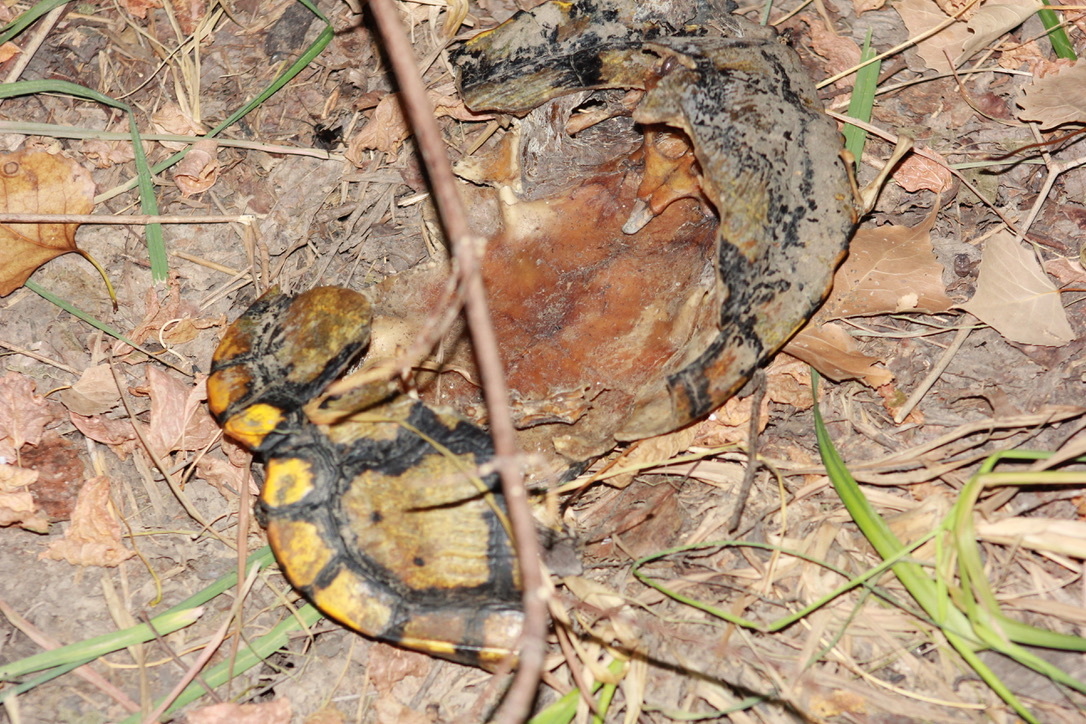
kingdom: Animalia
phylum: Chordata
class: Testudines
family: Emydidae
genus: Trachemys
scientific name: Trachemys scripta
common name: Slider
